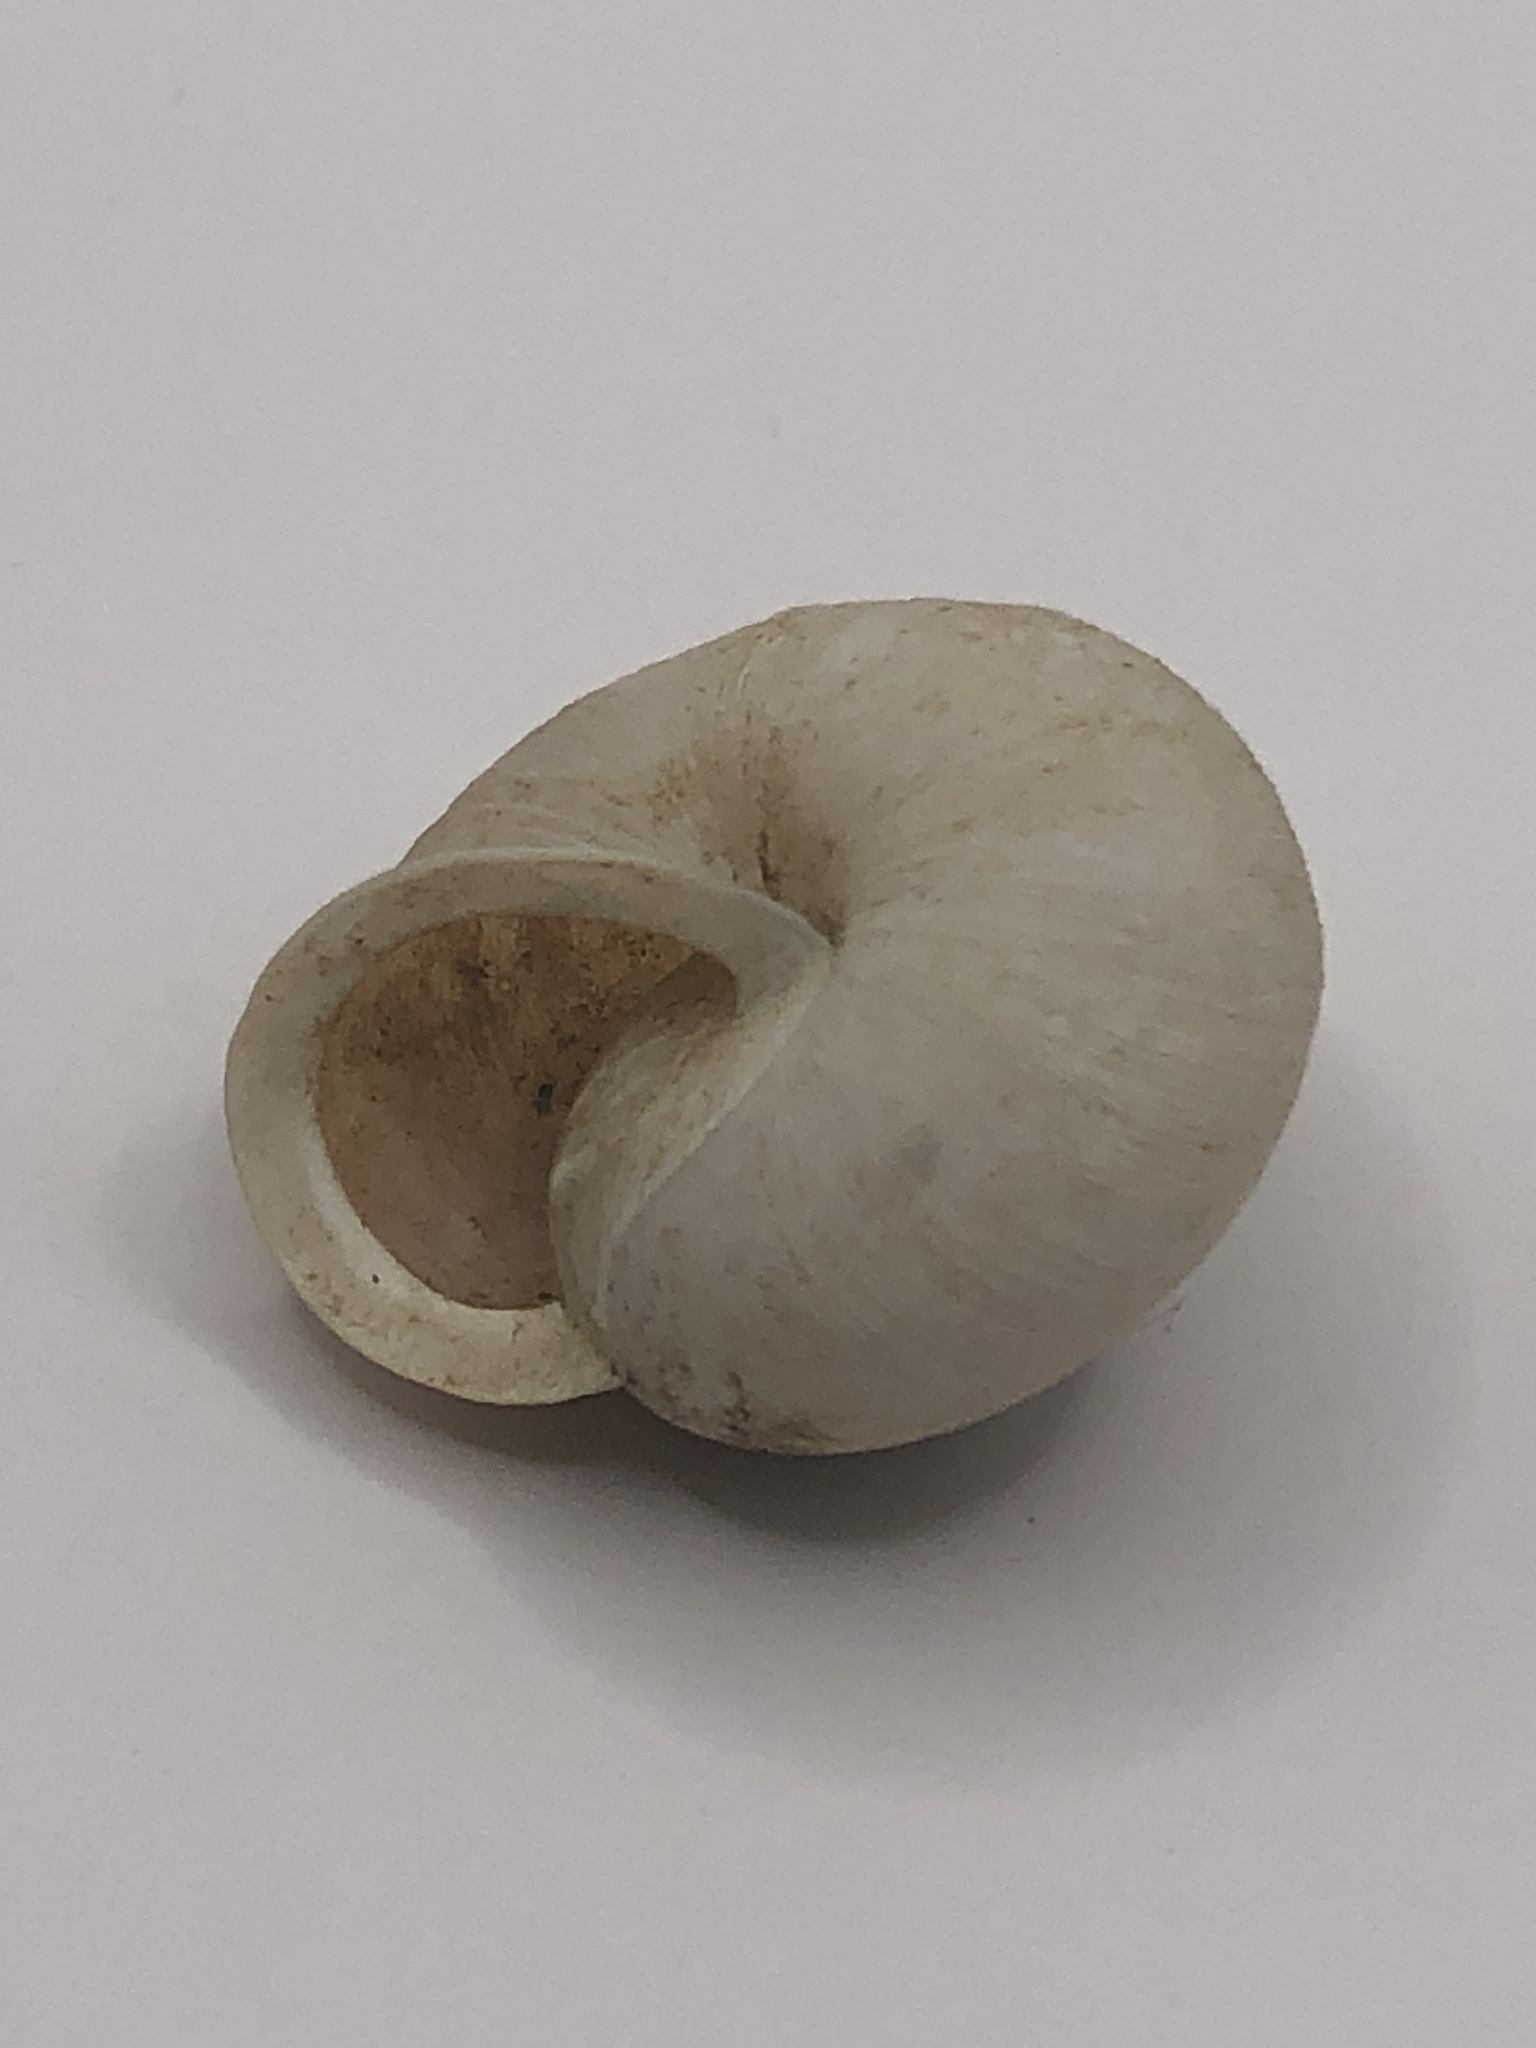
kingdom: Animalia
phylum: Mollusca
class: Gastropoda
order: Stylommatophora
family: Polygyridae
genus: Mesodon
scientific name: Mesodon thyroidus
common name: White-lip globe
